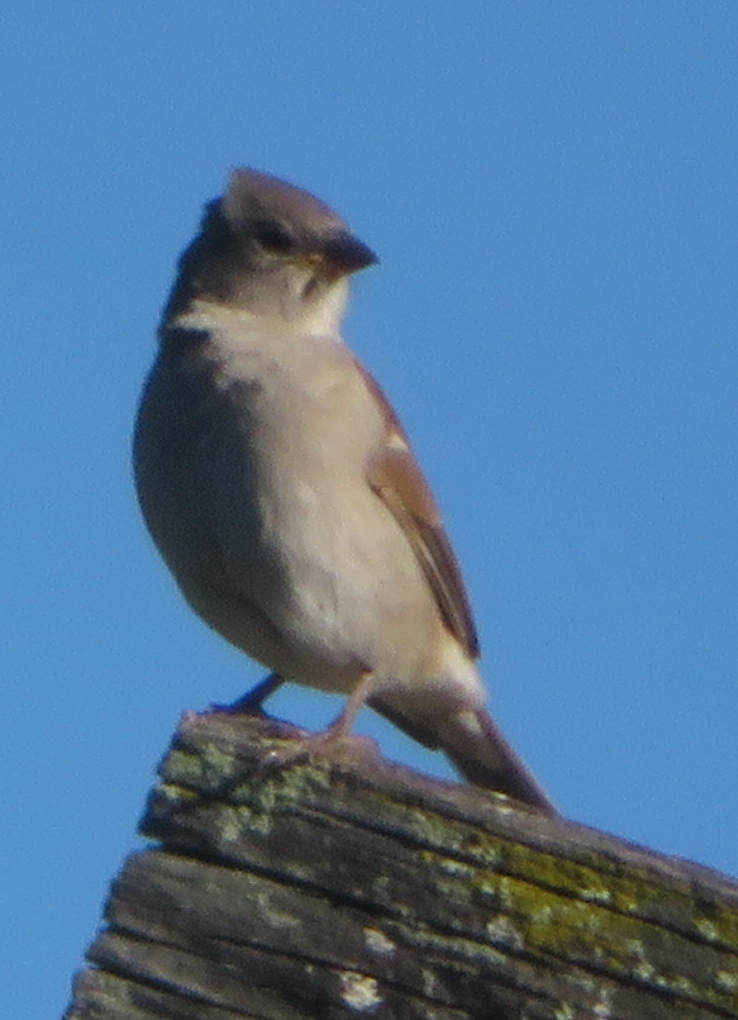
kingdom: Animalia
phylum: Chordata
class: Aves
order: Passeriformes
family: Passeridae
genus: Passer
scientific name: Passer diffusus
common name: Southern grey-headed sparrow
